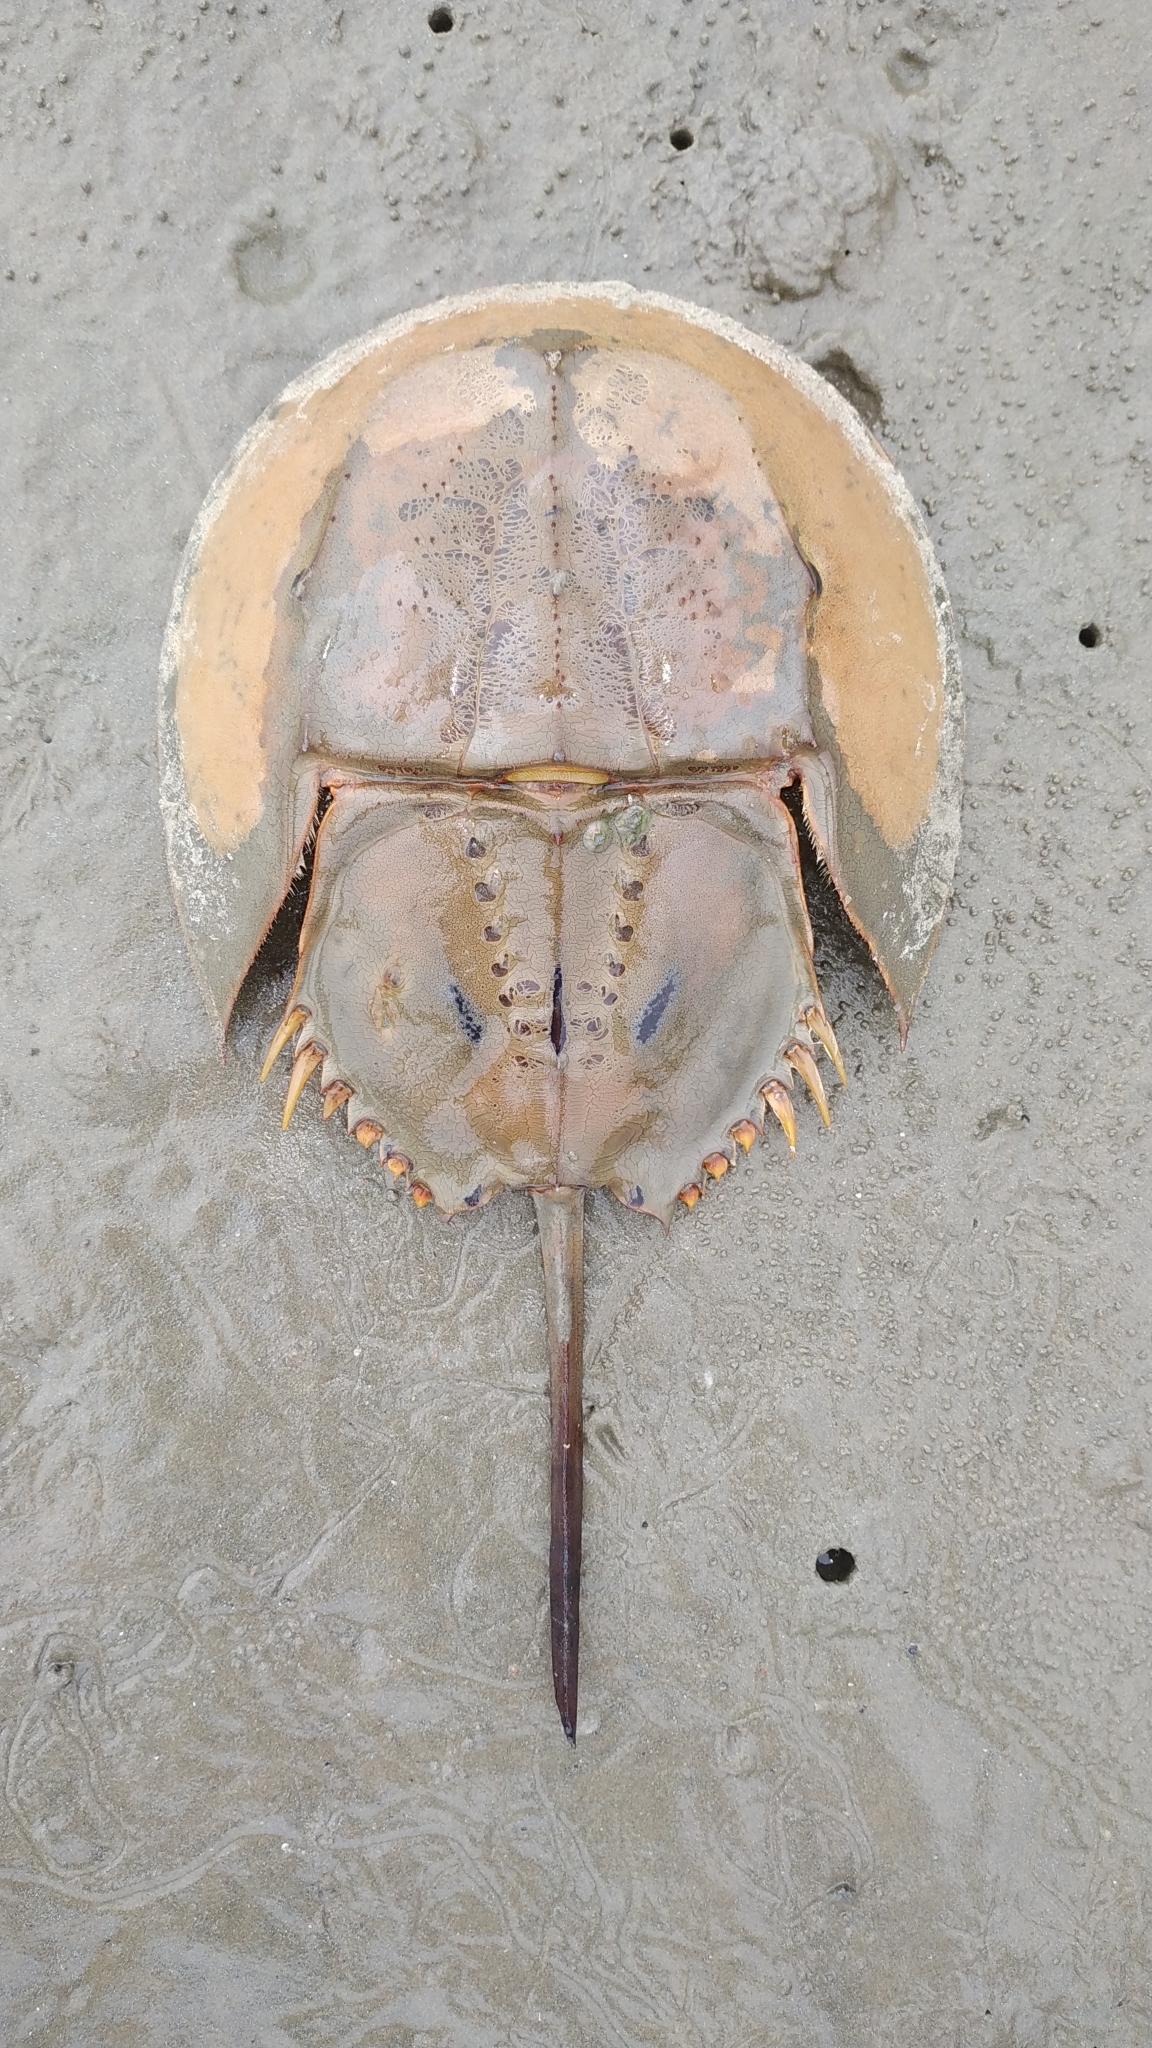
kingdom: Animalia
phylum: Arthropoda
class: Merostomata
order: Xiphosurida
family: Limulidae
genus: Tachypleus
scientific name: Tachypleus gigas
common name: Coastal horseshoe crab
